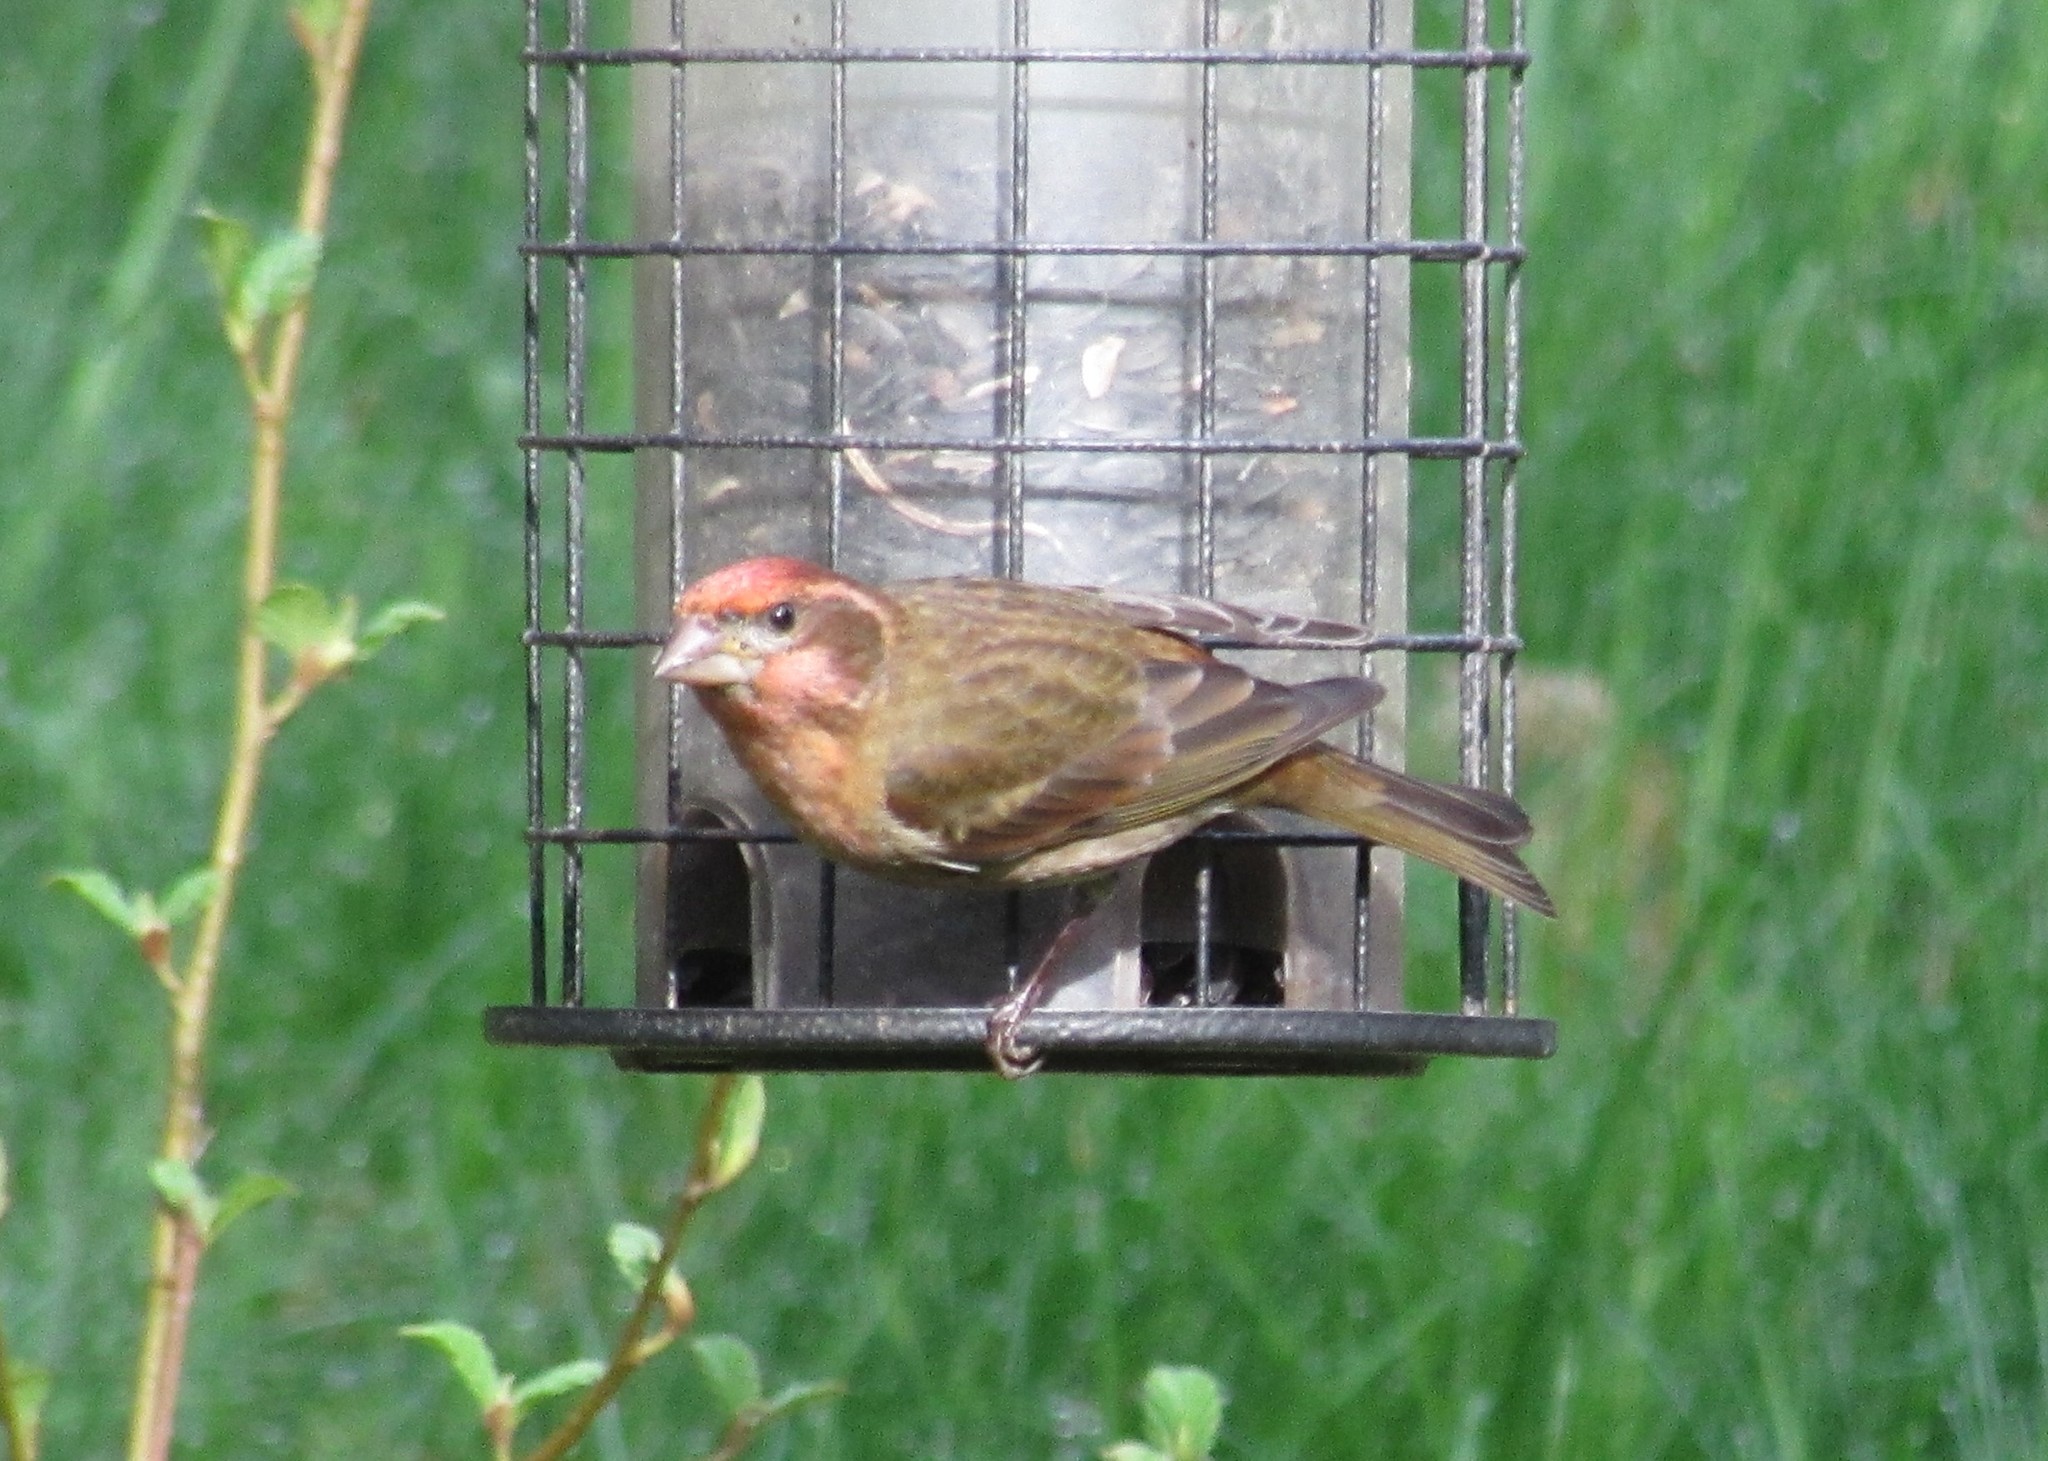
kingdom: Animalia
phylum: Chordata
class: Aves
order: Passeriformes
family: Fringillidae
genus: Haemorhous
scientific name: Haemorhous purpureus
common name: Purple finch
